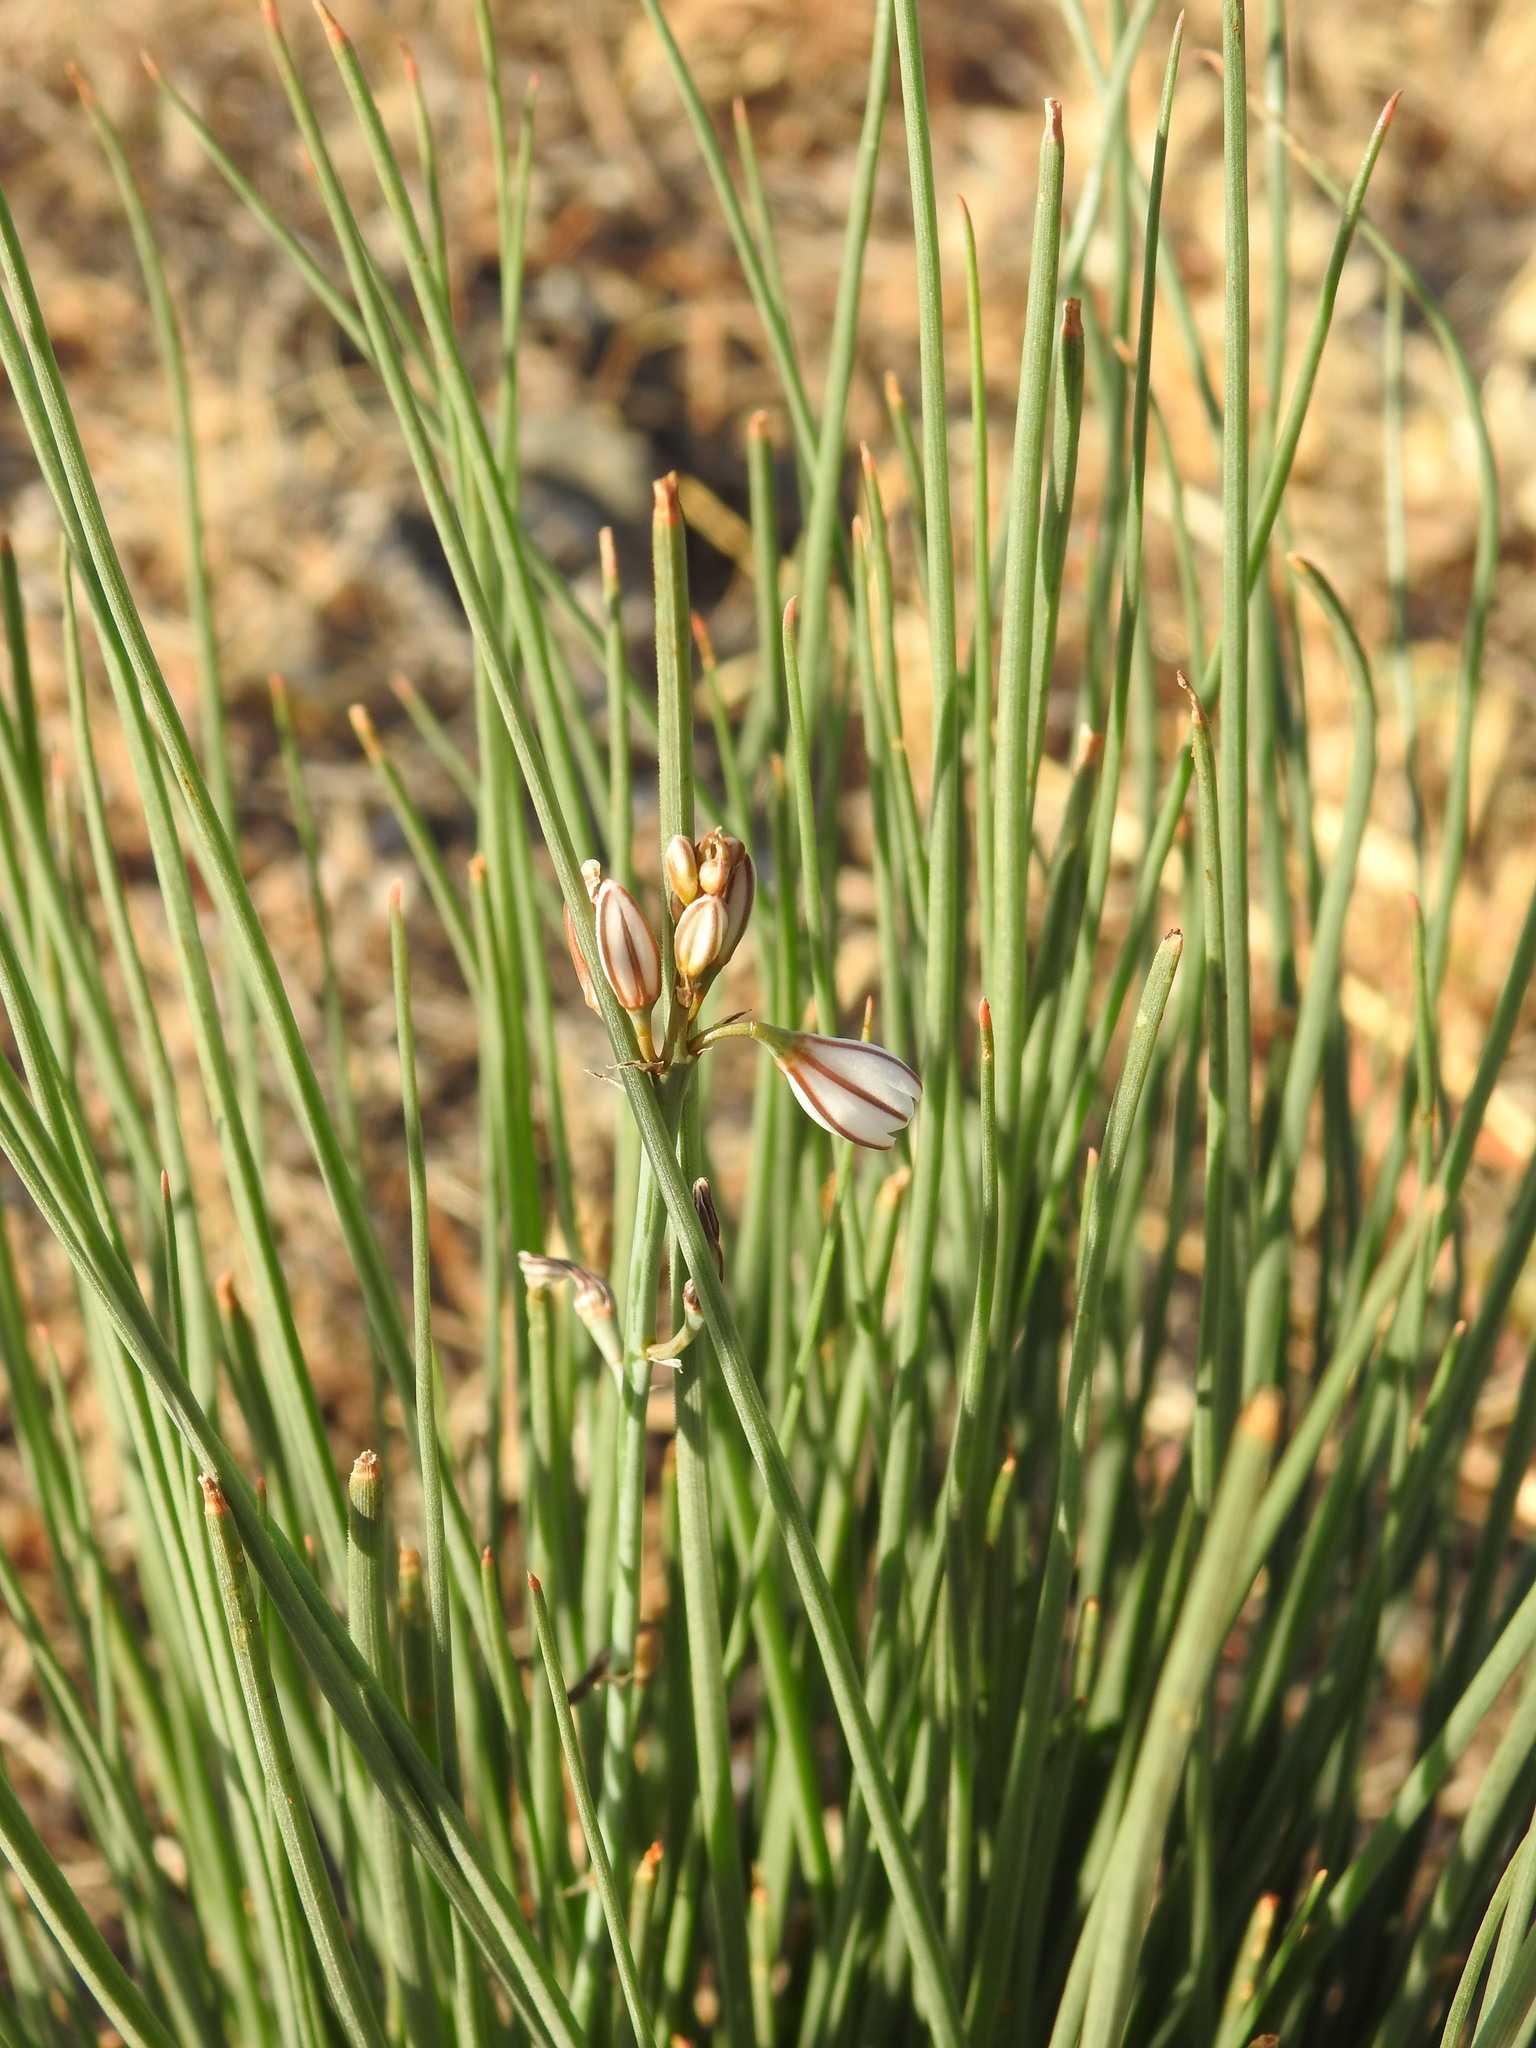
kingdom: Plantae
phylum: Tracheophyta
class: Liliopsida
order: Asparagales
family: Asphodelaceae
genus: Asphodelus
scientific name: Asphodelus fistulosus
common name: Onionweed
